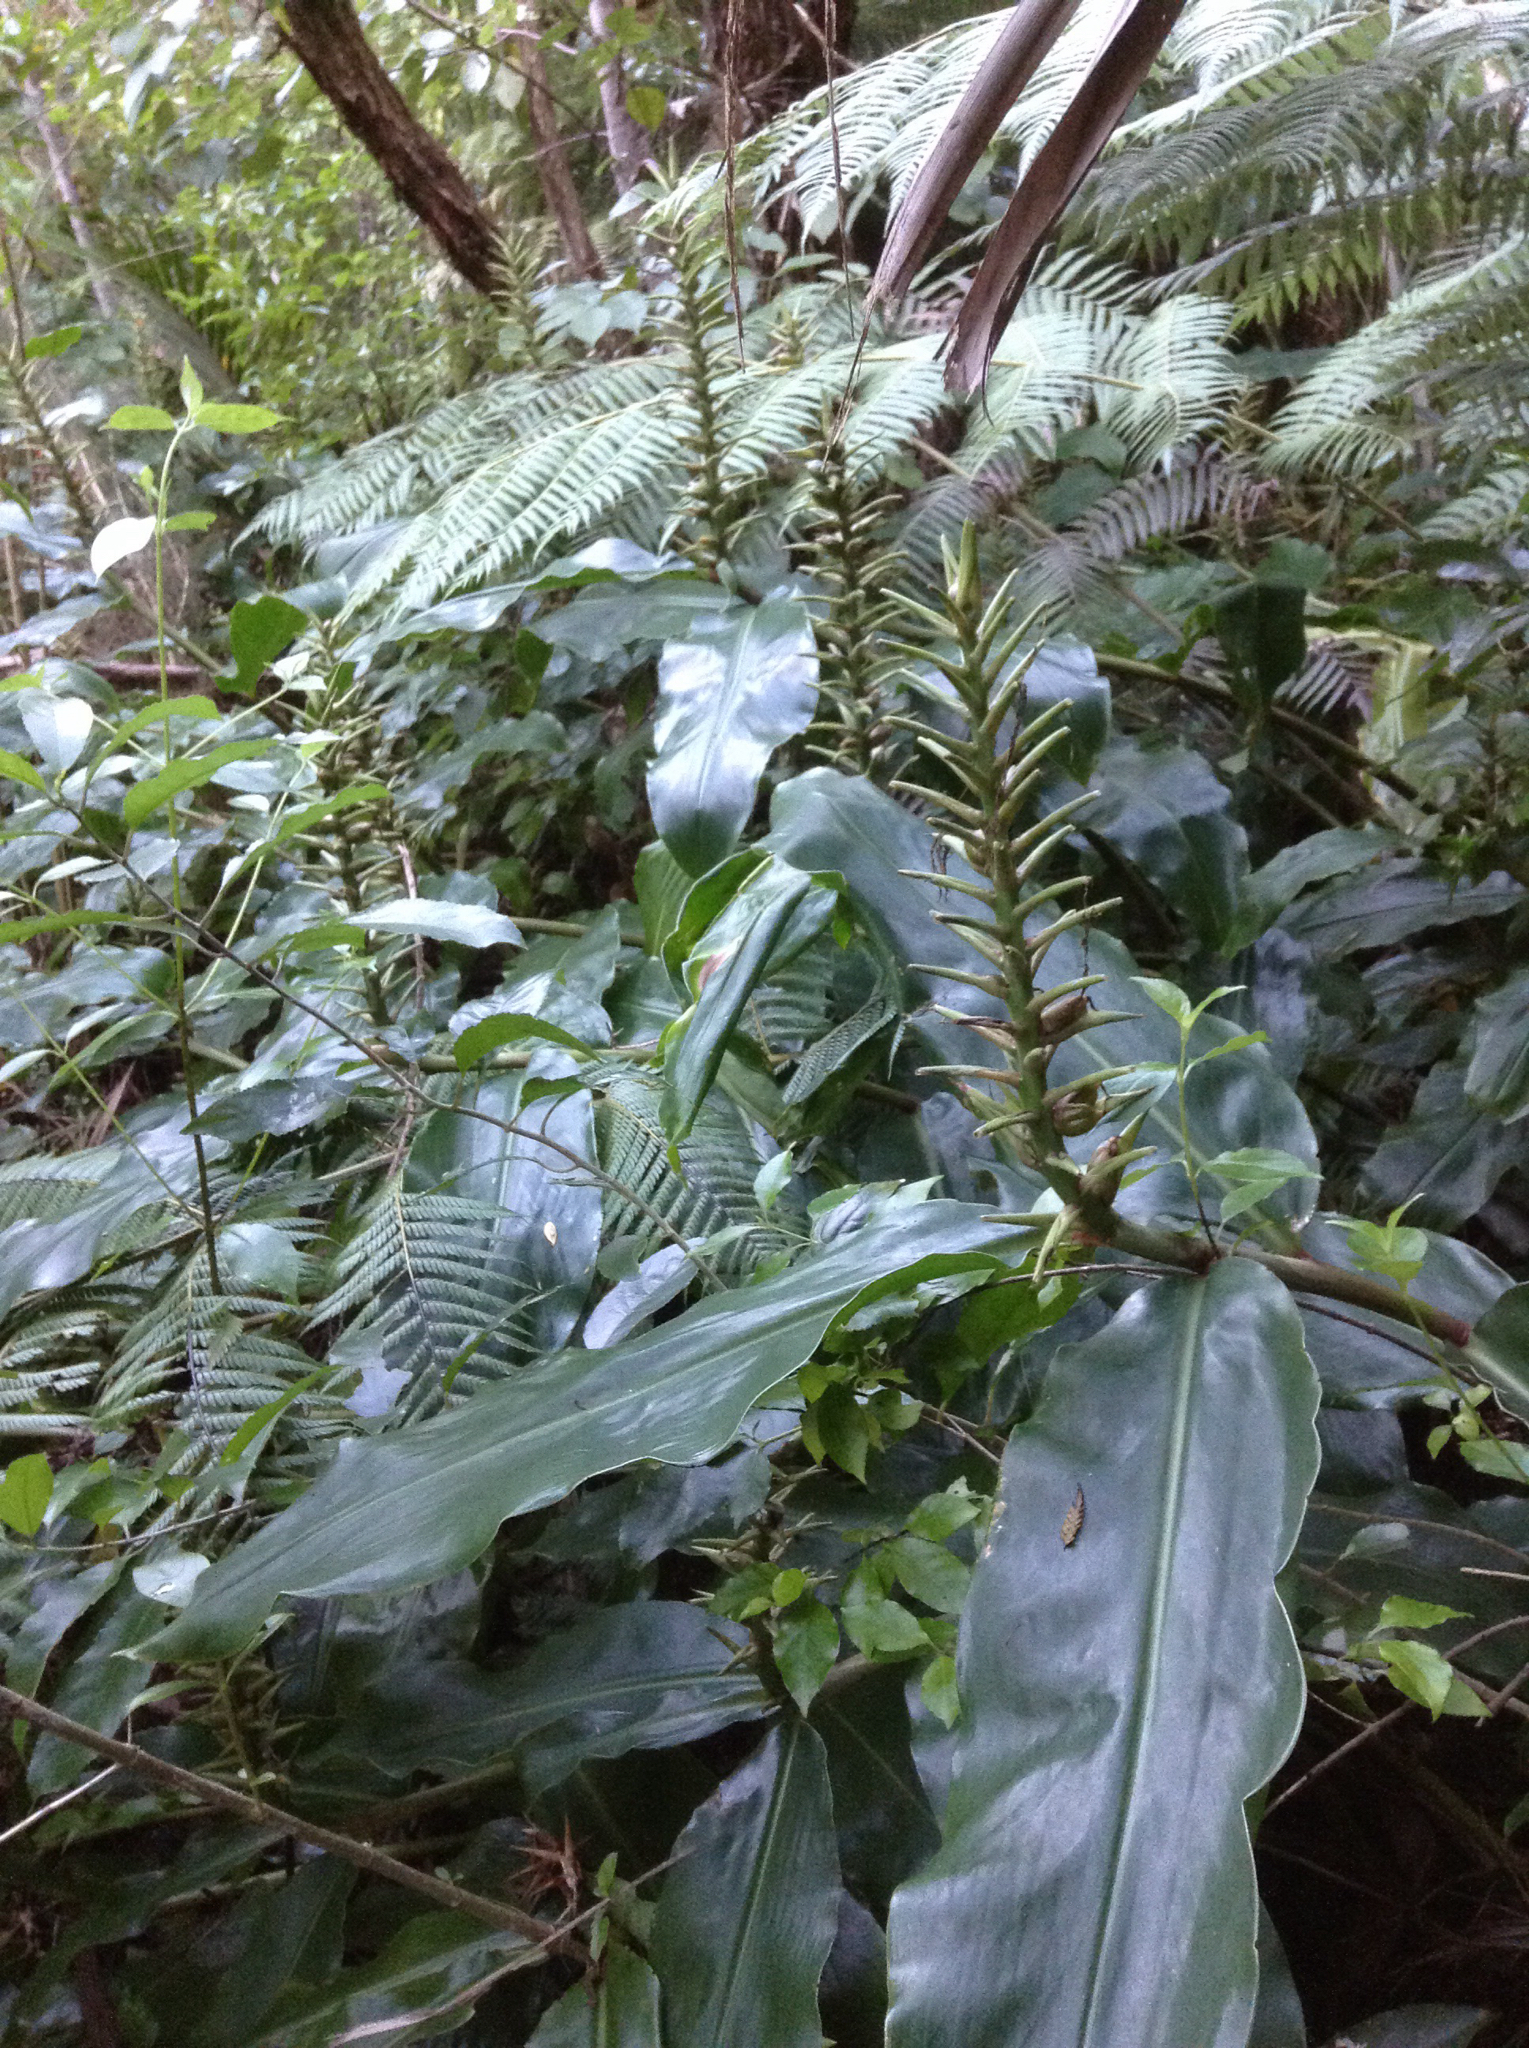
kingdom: Plantae
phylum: Tracheophyta
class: Liliopsida
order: Zingiberales
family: Zingiberaceae
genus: Hedychium
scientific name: Hedychium gardnerianum
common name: Himalayan ginger
